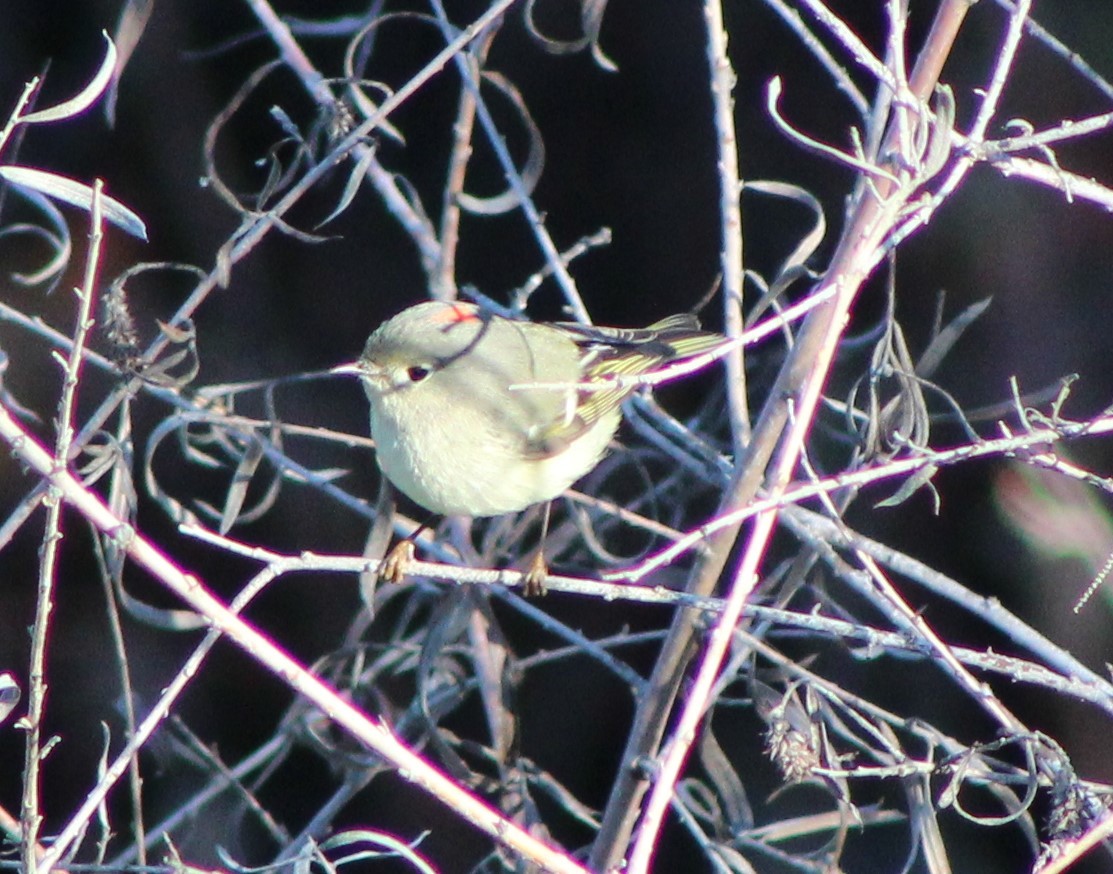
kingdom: Animalia
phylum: Chordata
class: Aves
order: Passeriformes
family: Regulidae
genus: Regulus
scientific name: Regulus calendula
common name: Ruby-crowned kinglet
